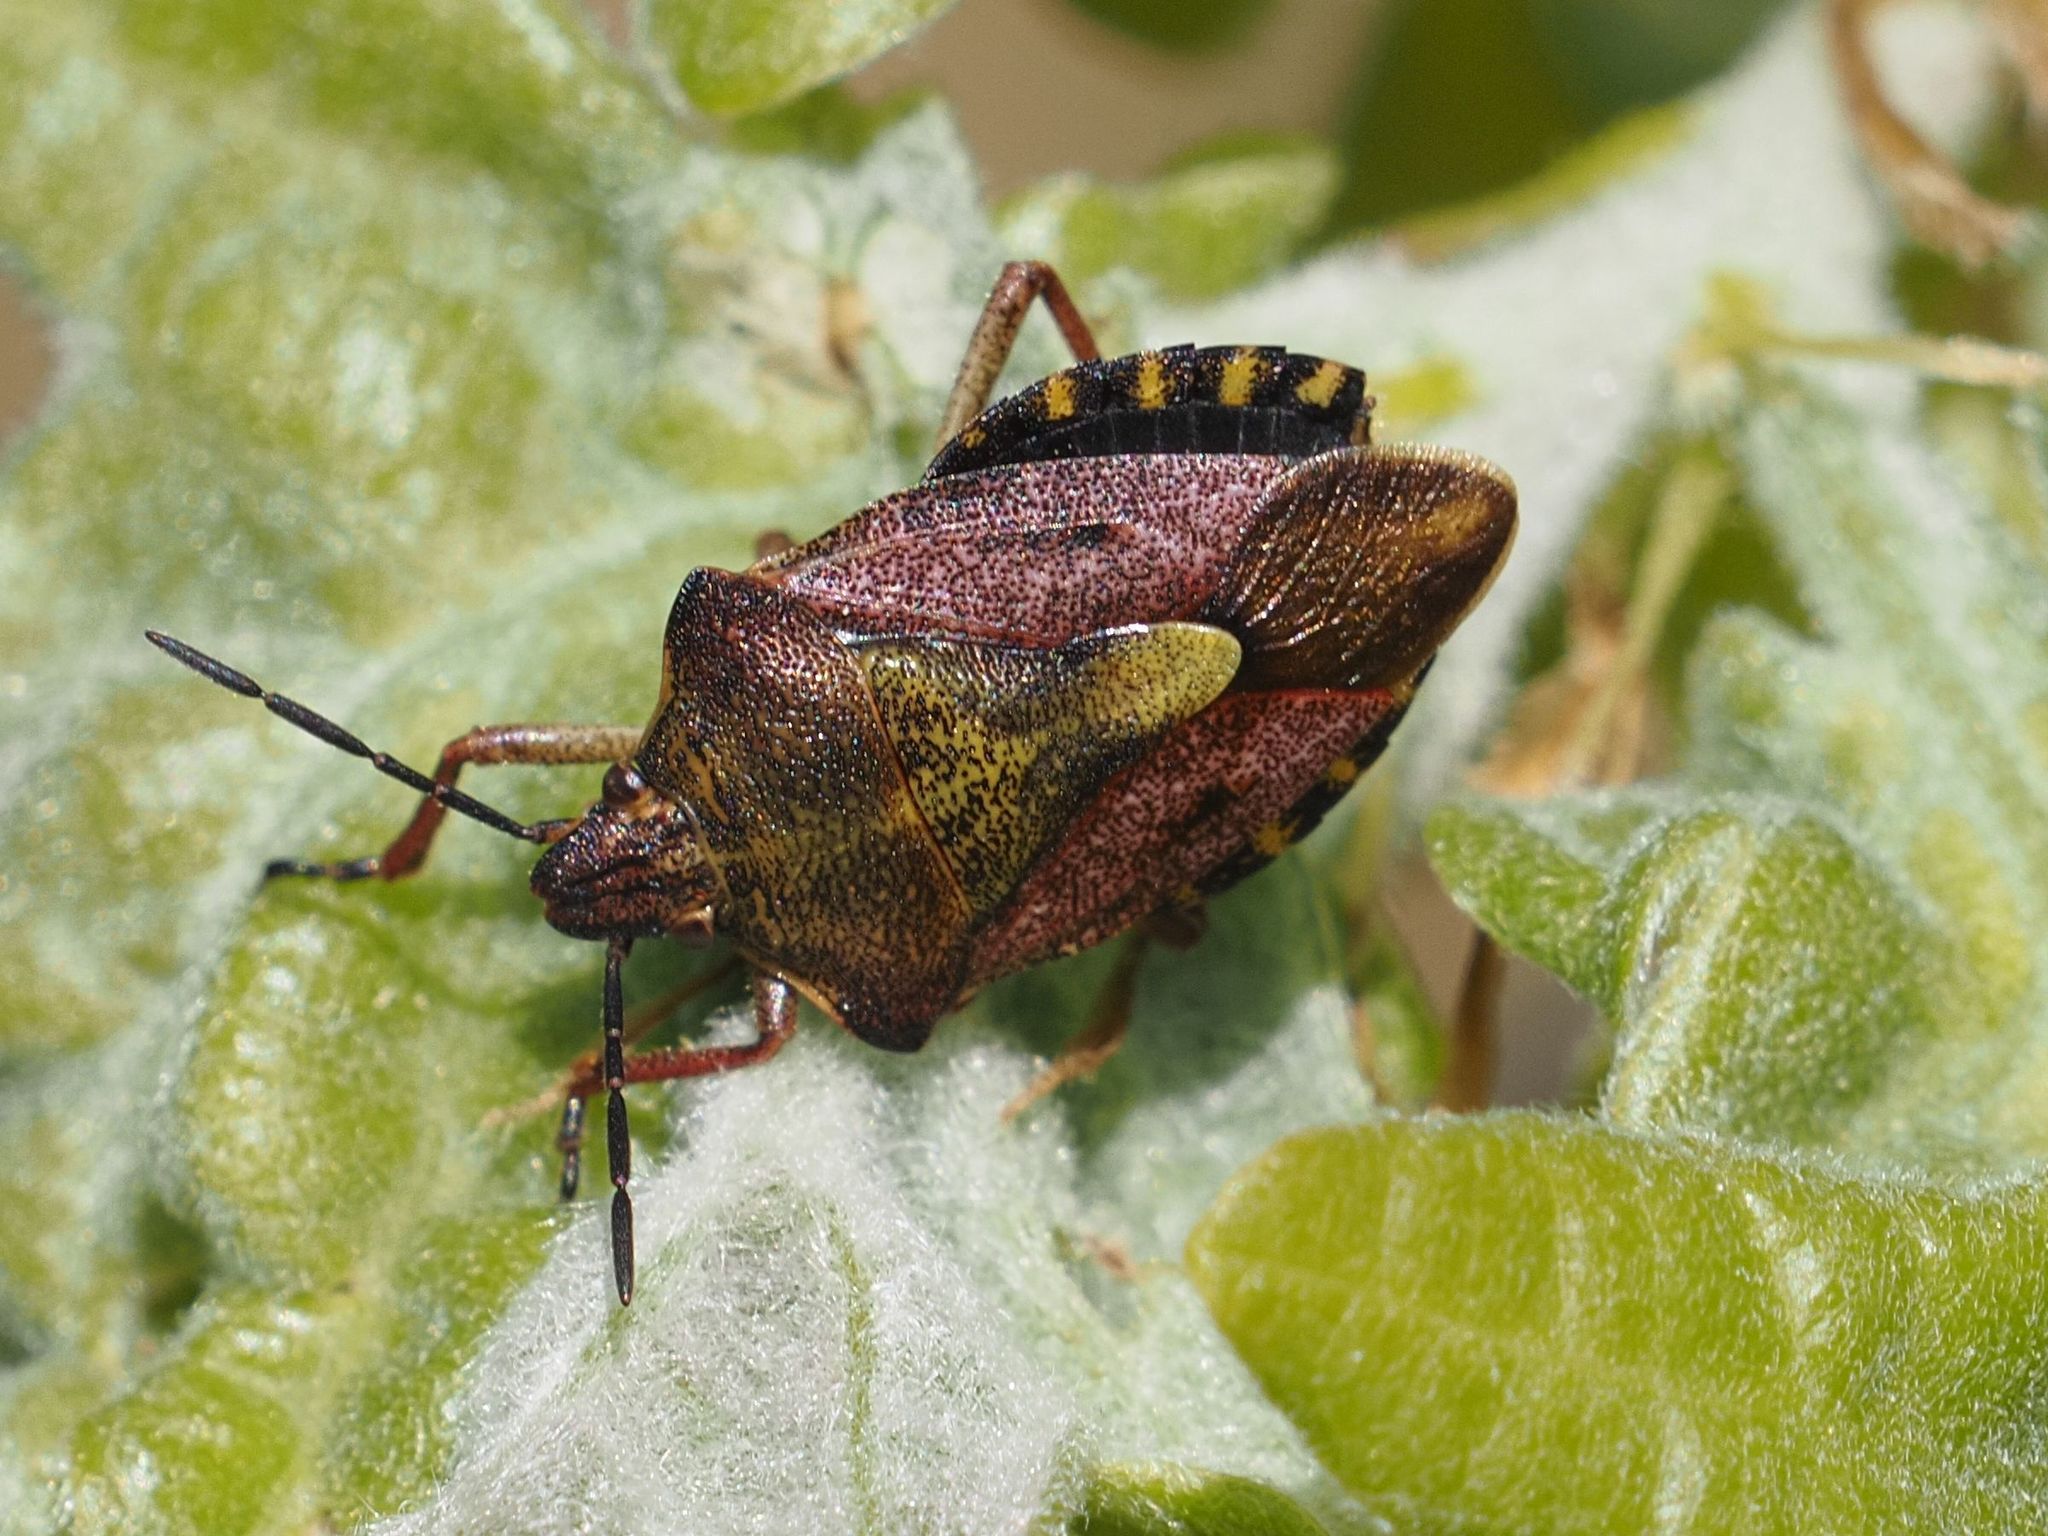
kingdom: Animalia
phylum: Arthropoda
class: Insecta
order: Hemiptera
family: Pentatomidae
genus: Carpocoris
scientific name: Carpocoris purpureipennis
